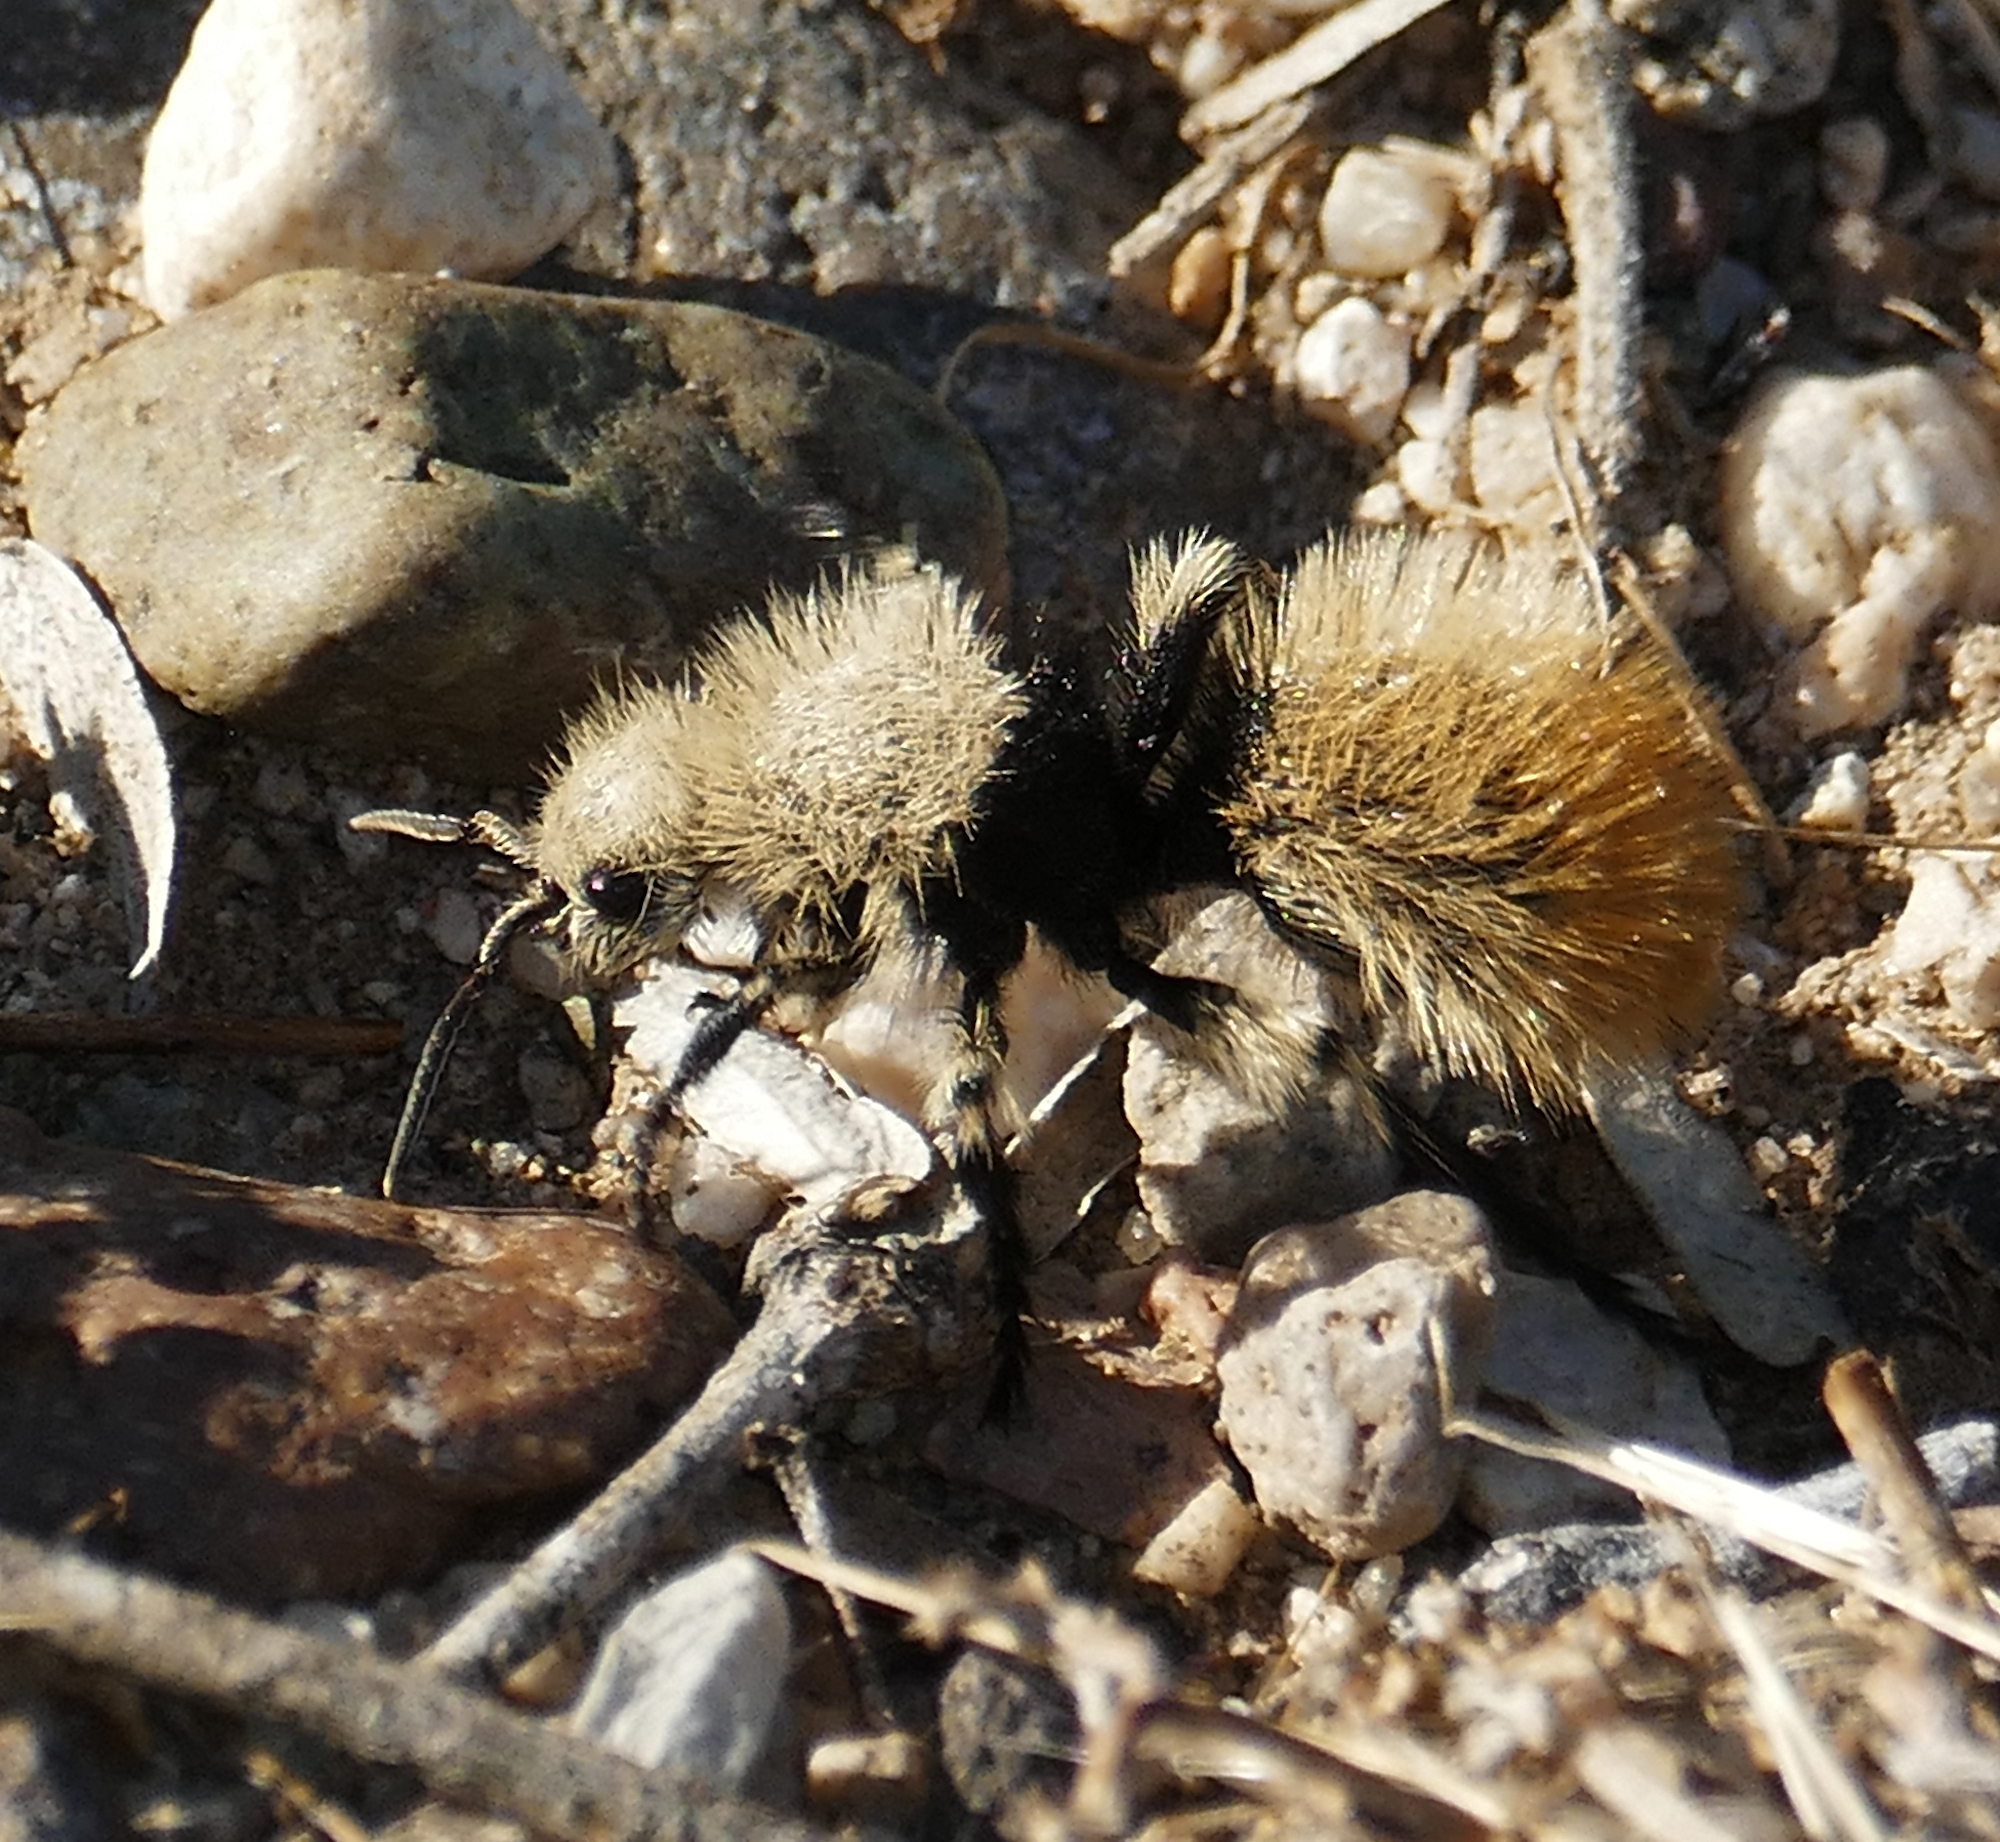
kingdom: Animalia
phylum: Arthropoda
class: Insecta
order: Hymenoptera
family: Mutillidae
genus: Dasymutilla
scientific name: Dasymutilla
